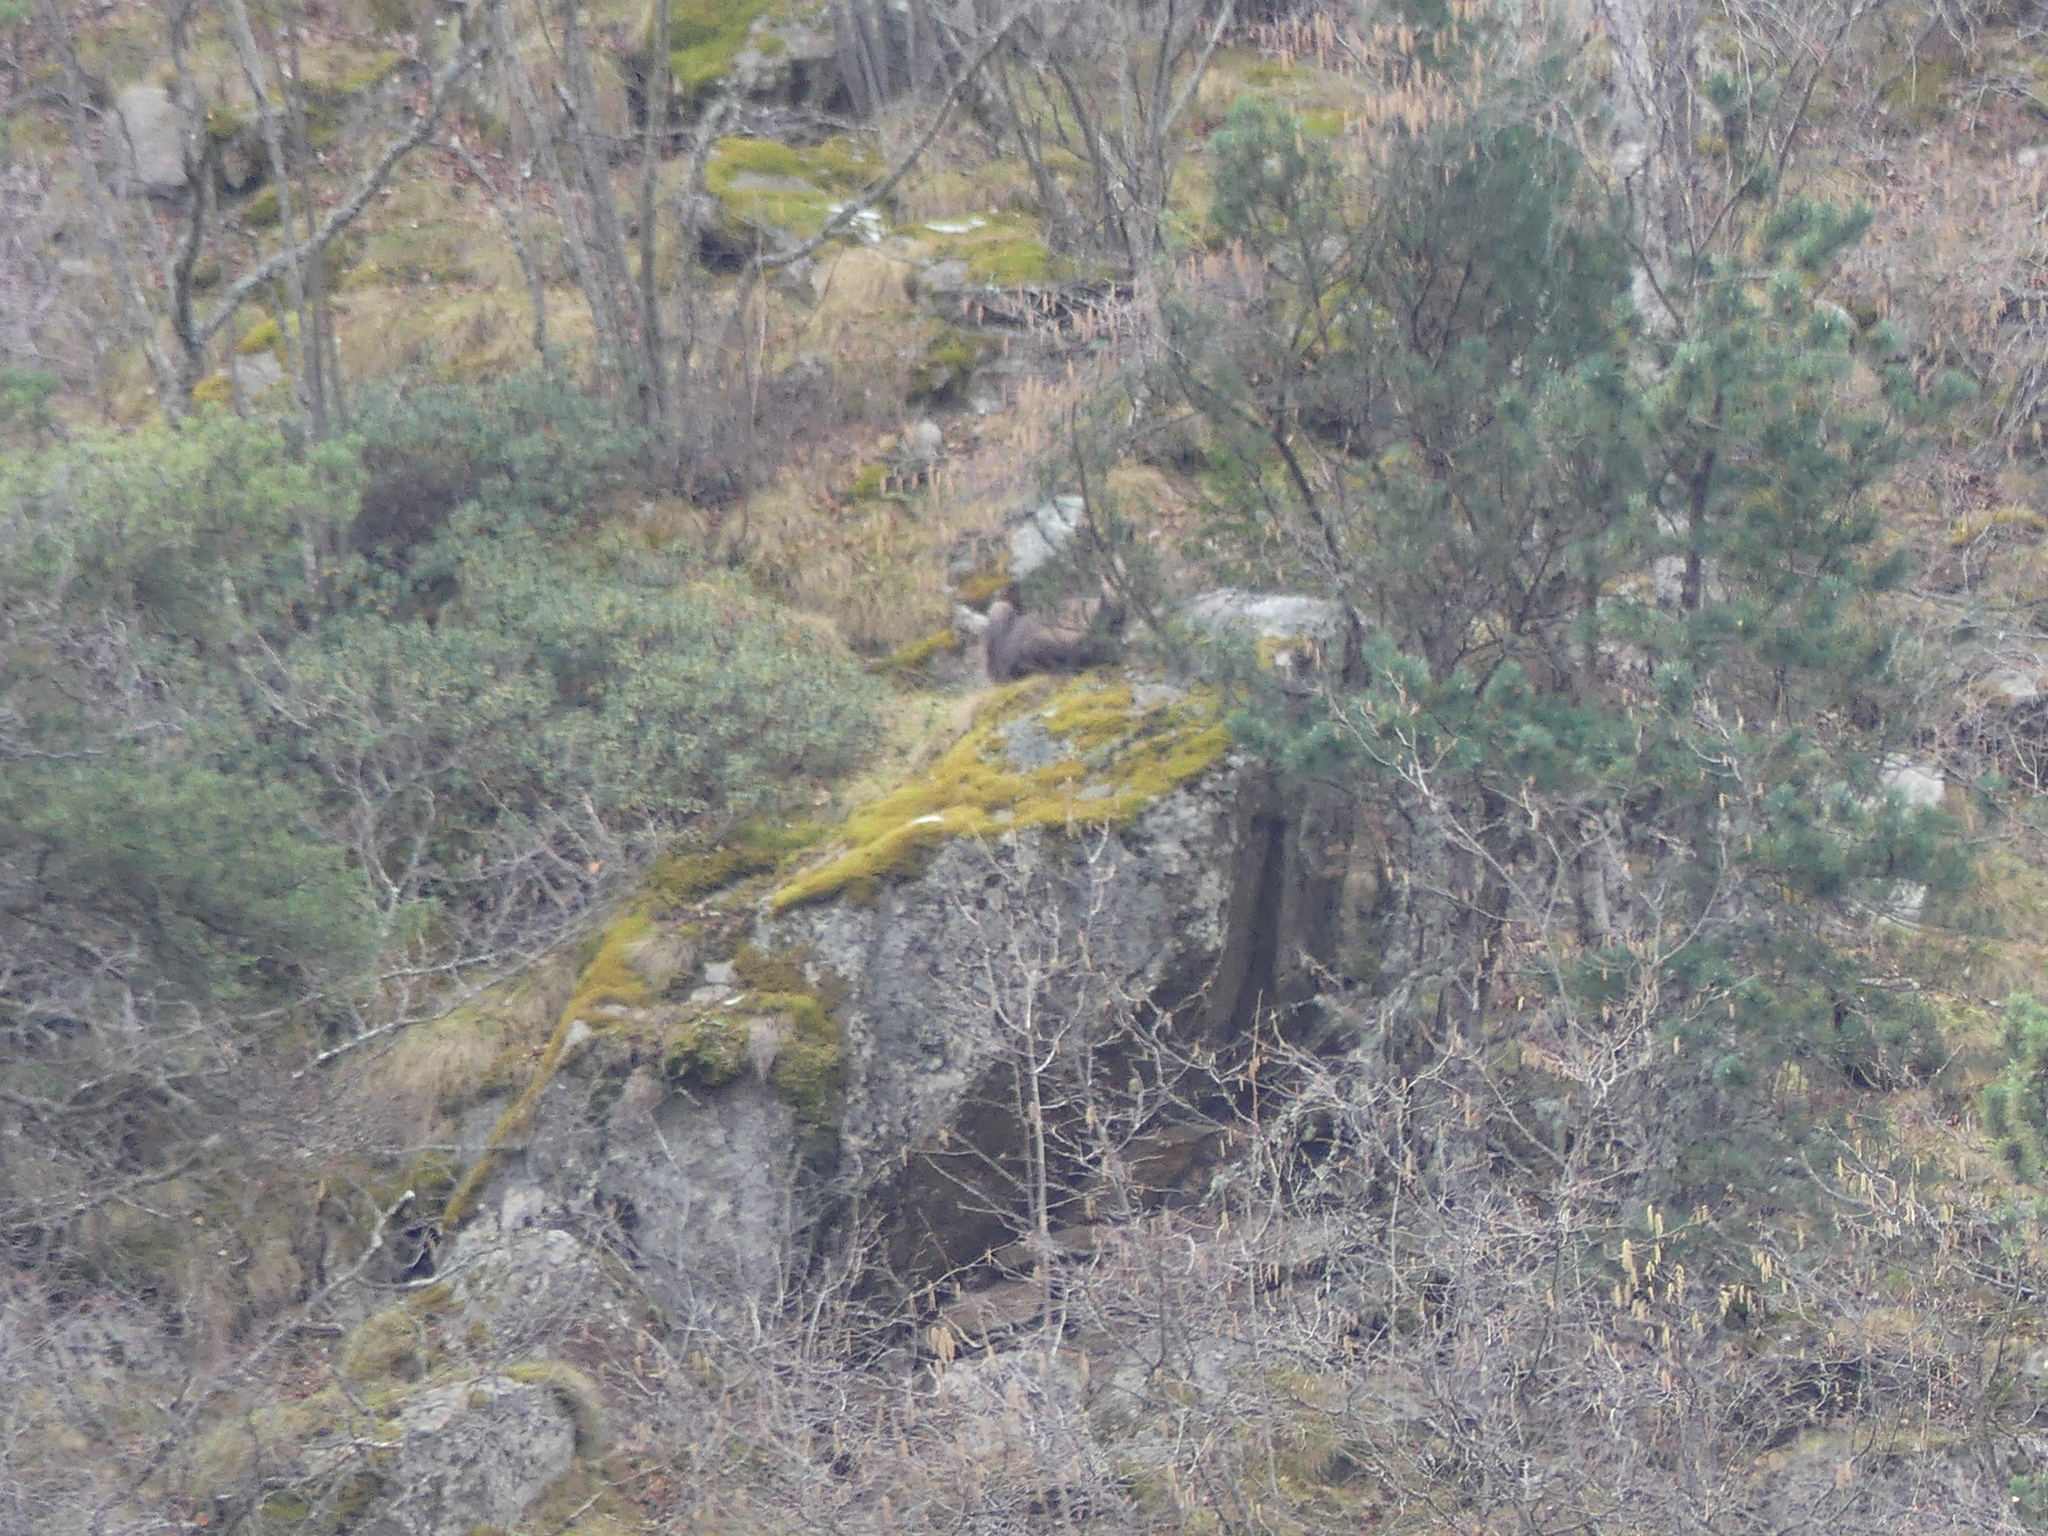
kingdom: Animalia
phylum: Chordata
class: Mammalia
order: Artiodactyla
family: Bovidae
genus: Rupicapra
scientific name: Rupicapra pyrenaica
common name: Pyrenean chamois
